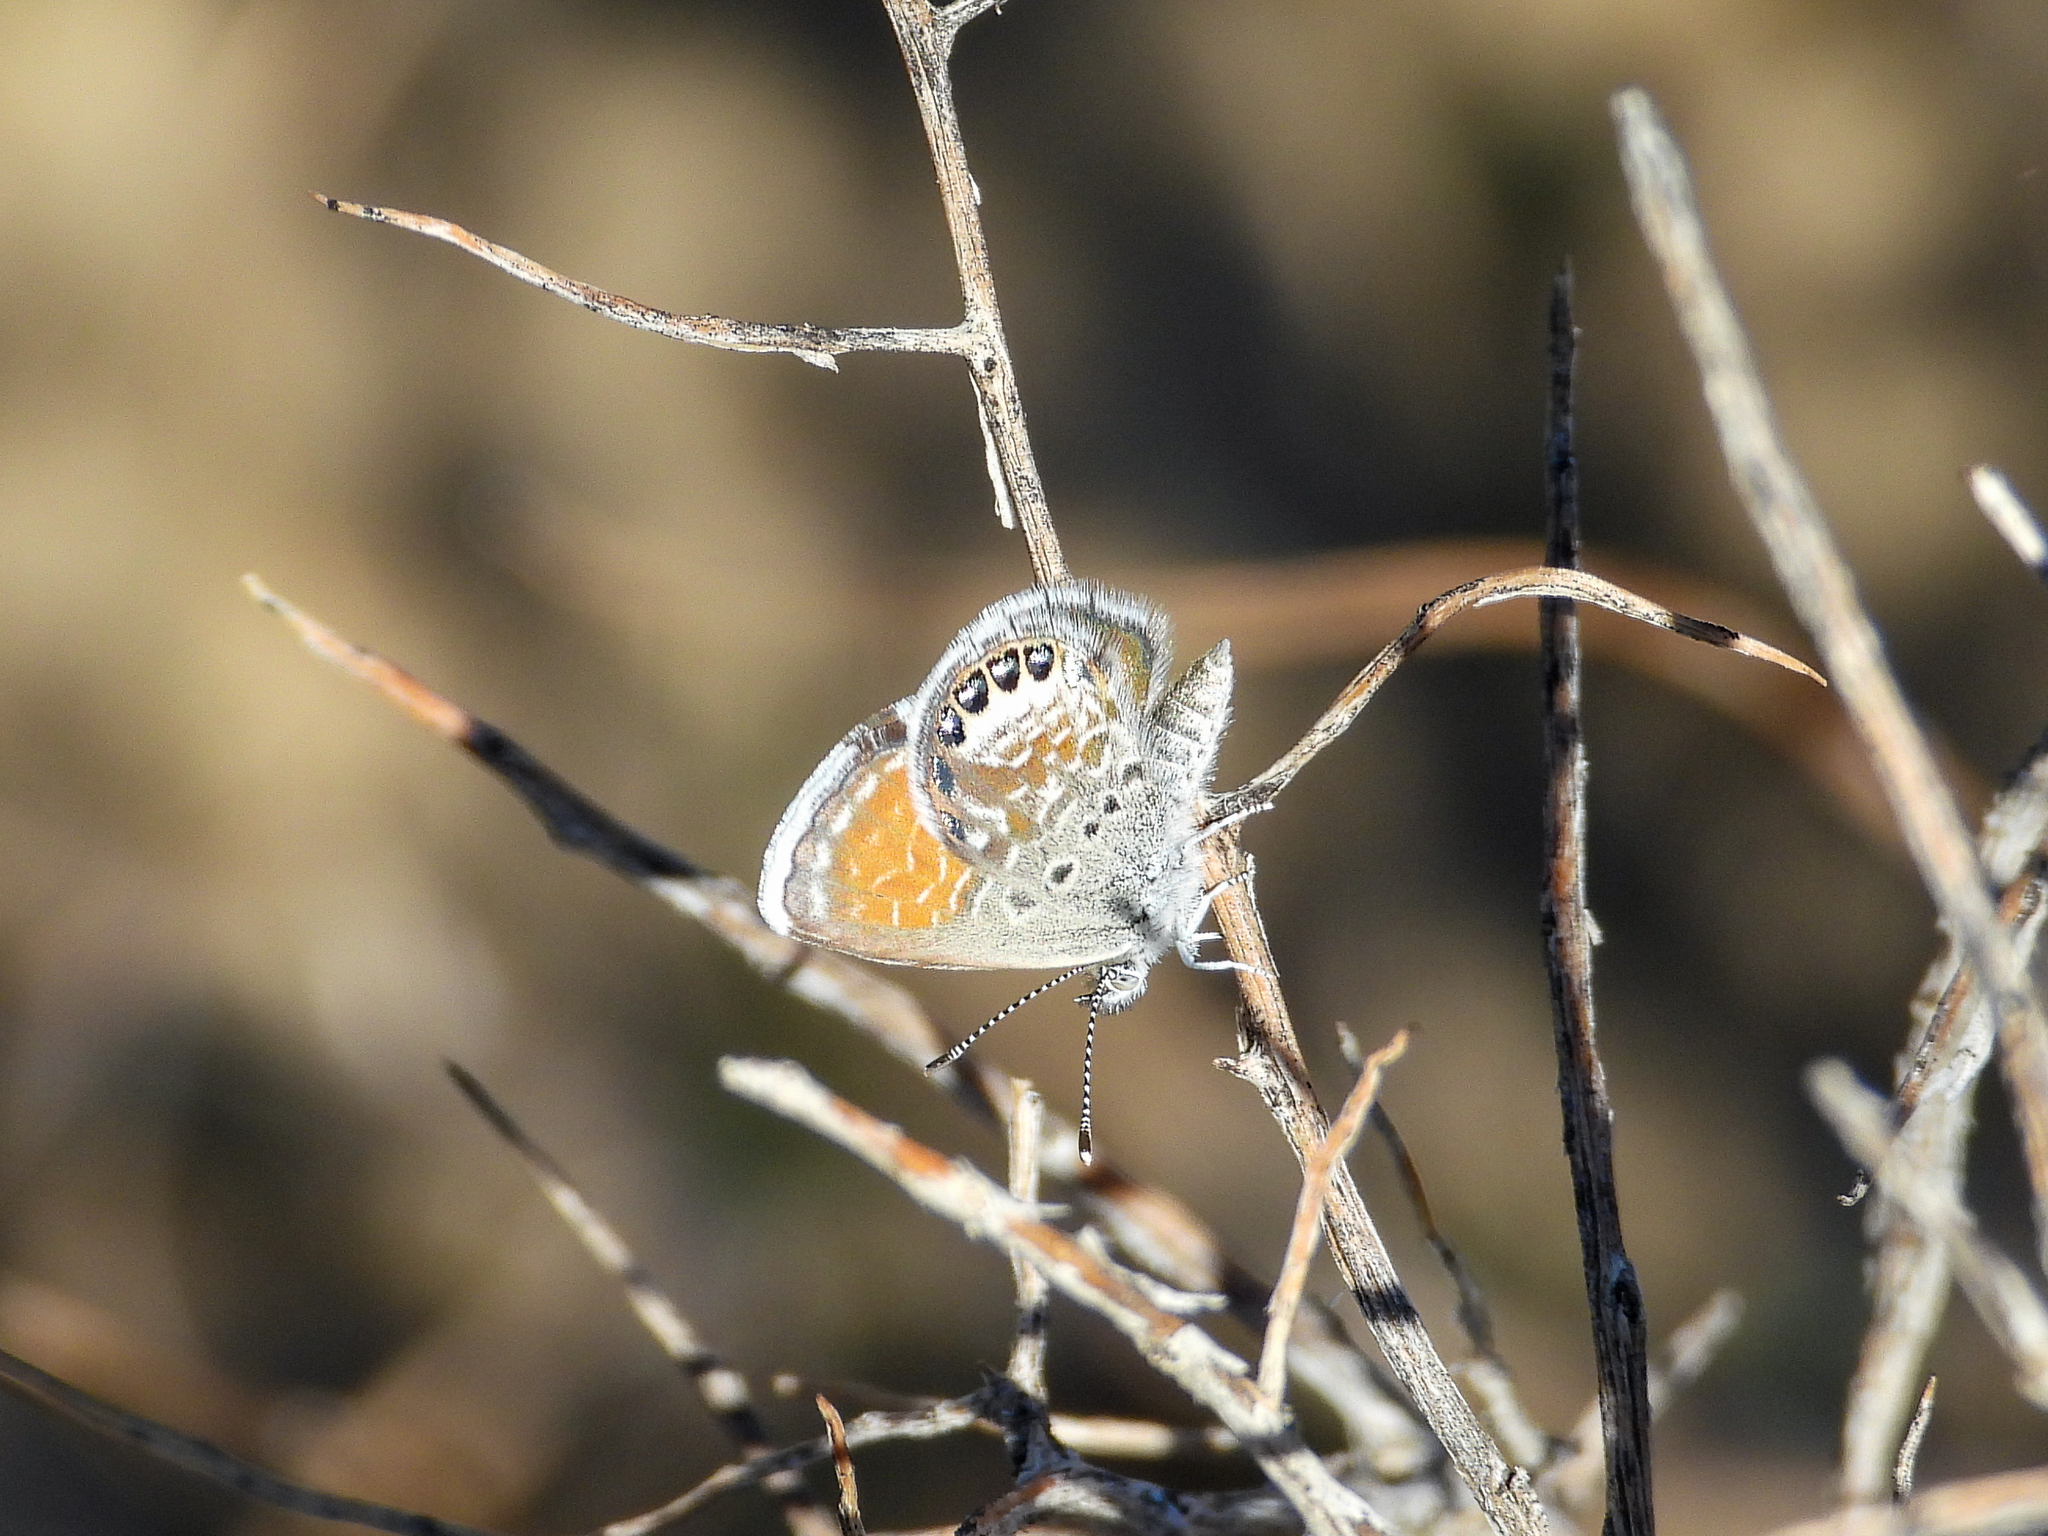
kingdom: Animalia
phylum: Arthropoda
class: Insecta
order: Lepidoptera
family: Lycaenidae
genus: Brephidium
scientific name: Brephidium exilis
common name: Pygmy blue
